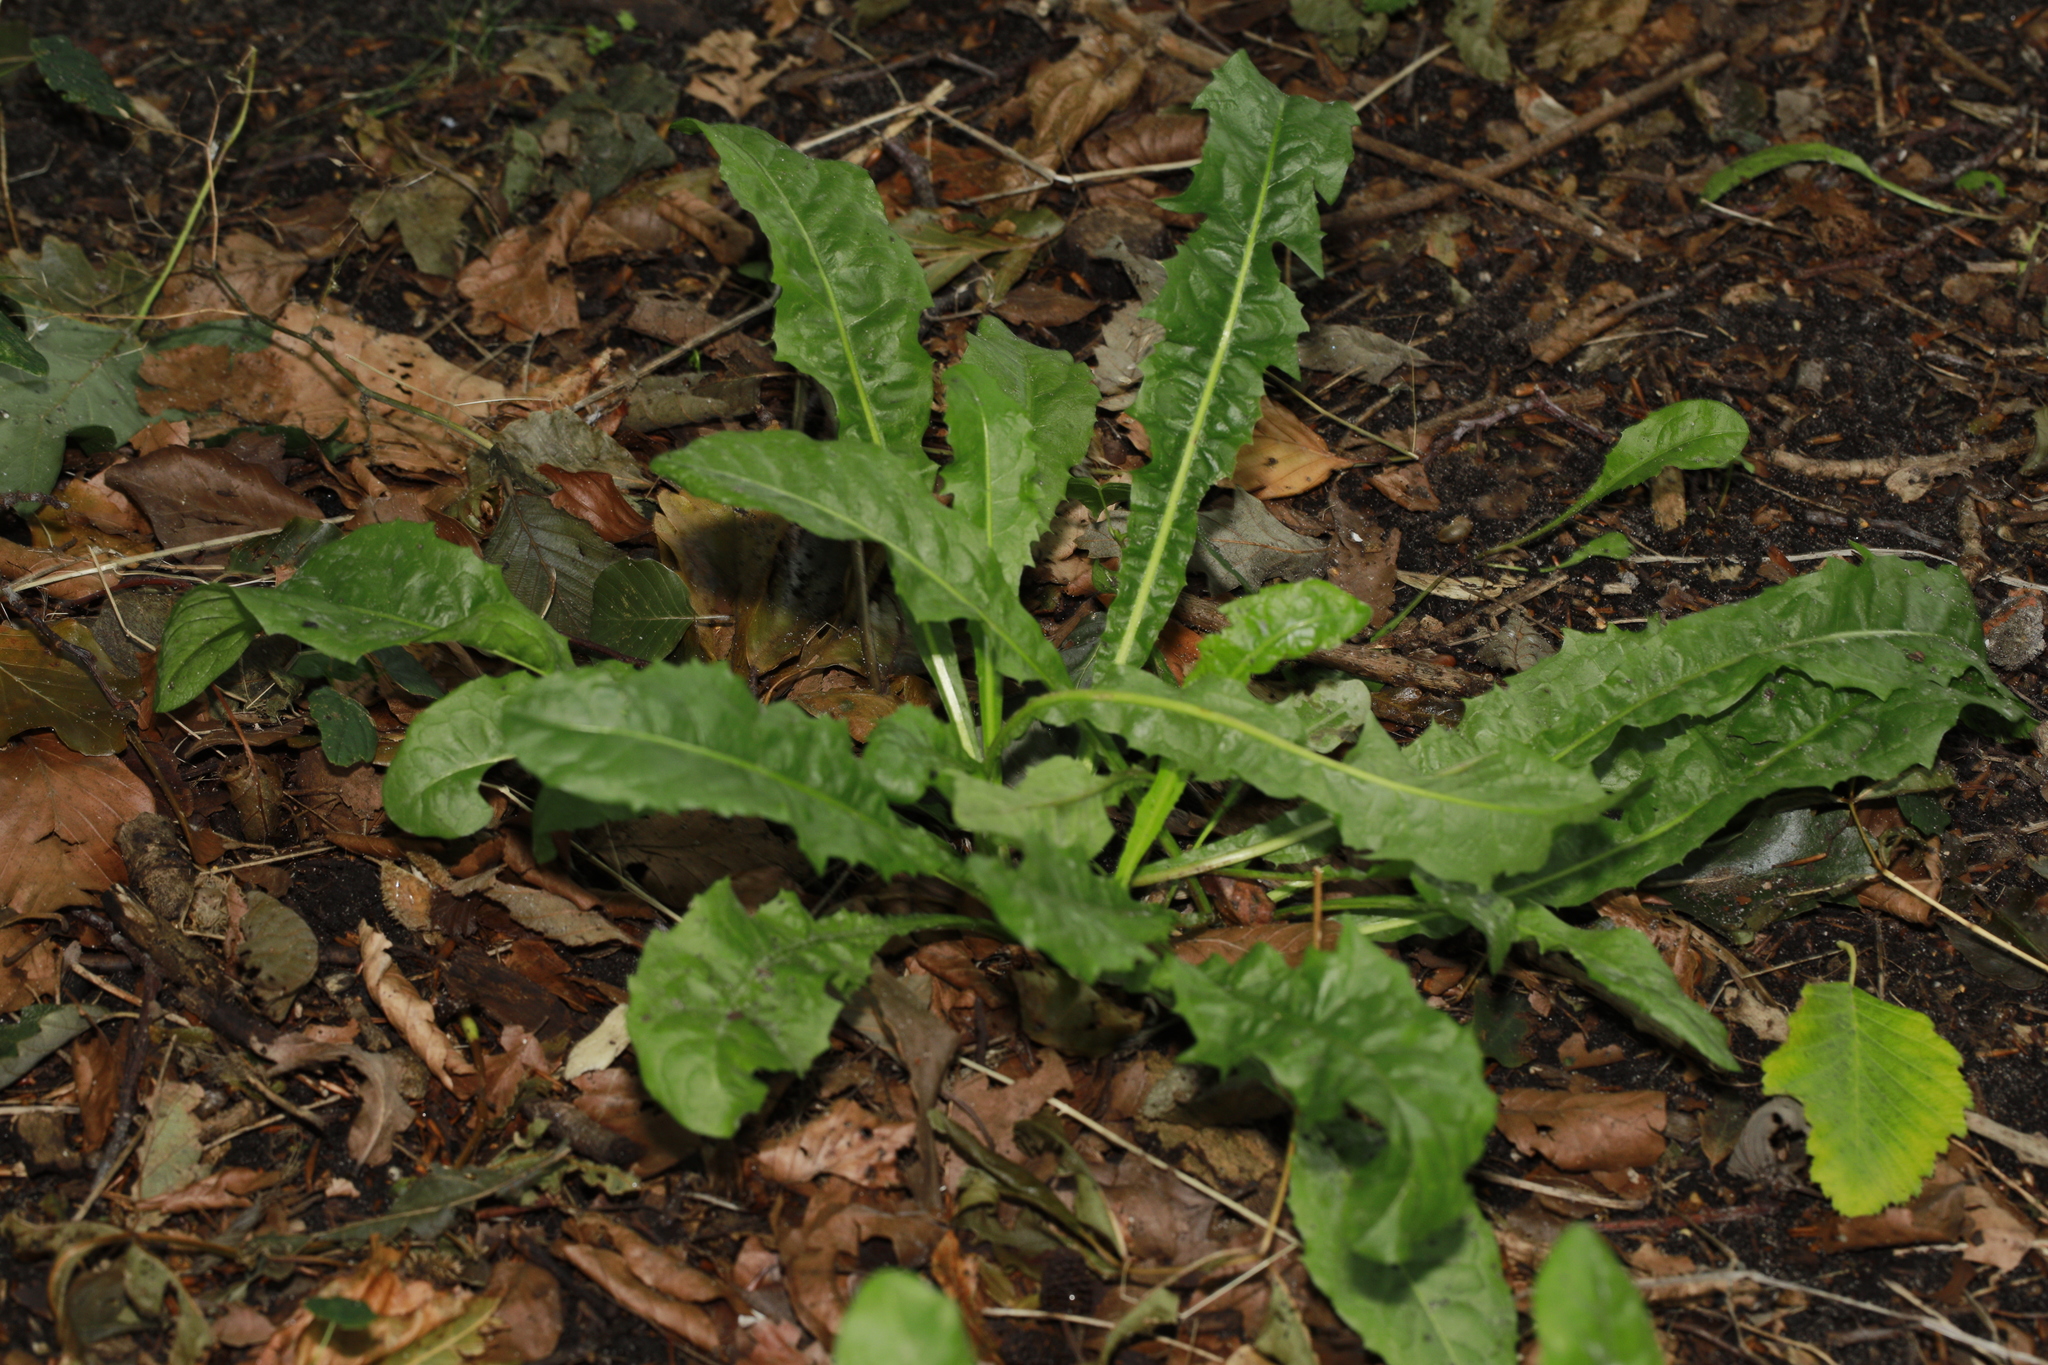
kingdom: Plantae
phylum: Tracheophyta
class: Magnoliopsida
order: Asterales
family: Asteraceae
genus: Taraxacum
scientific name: Taraxacum officinale
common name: Common dandelion
